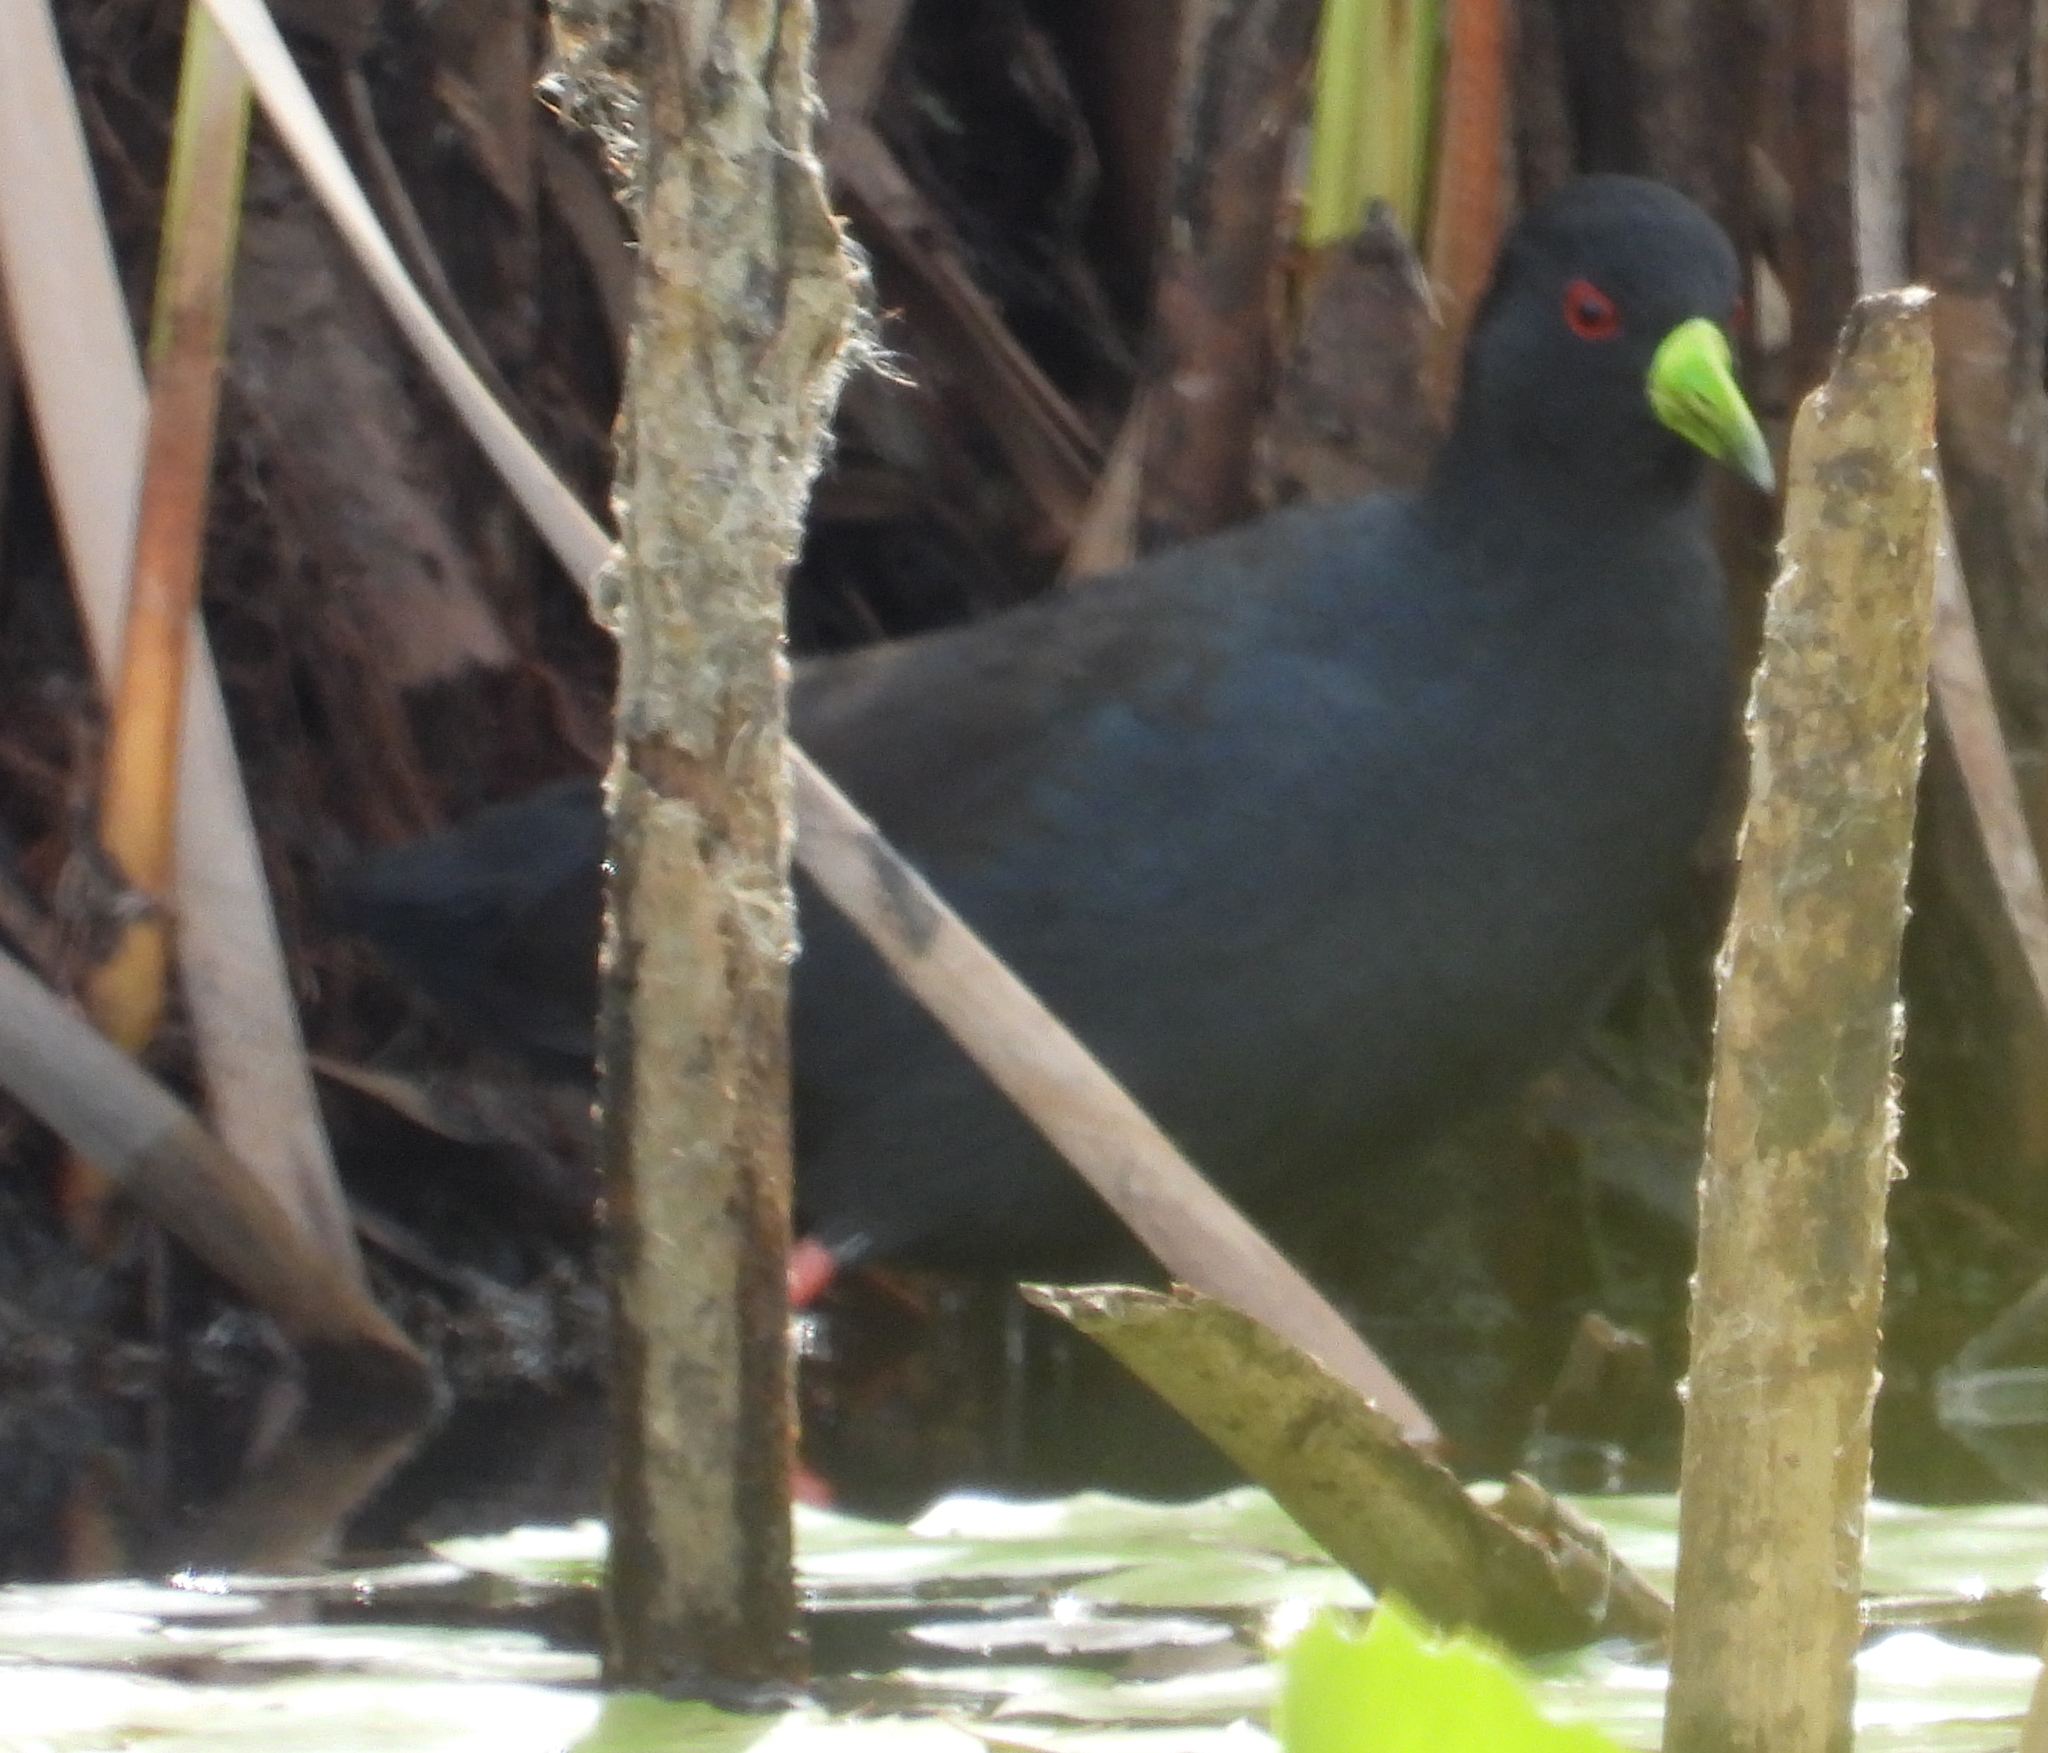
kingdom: Animalia
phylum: Chordata
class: Aves
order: Gruiformes
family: Rallidae
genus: Amaurornis
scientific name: Amaurornis flavirostra
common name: Black crake
